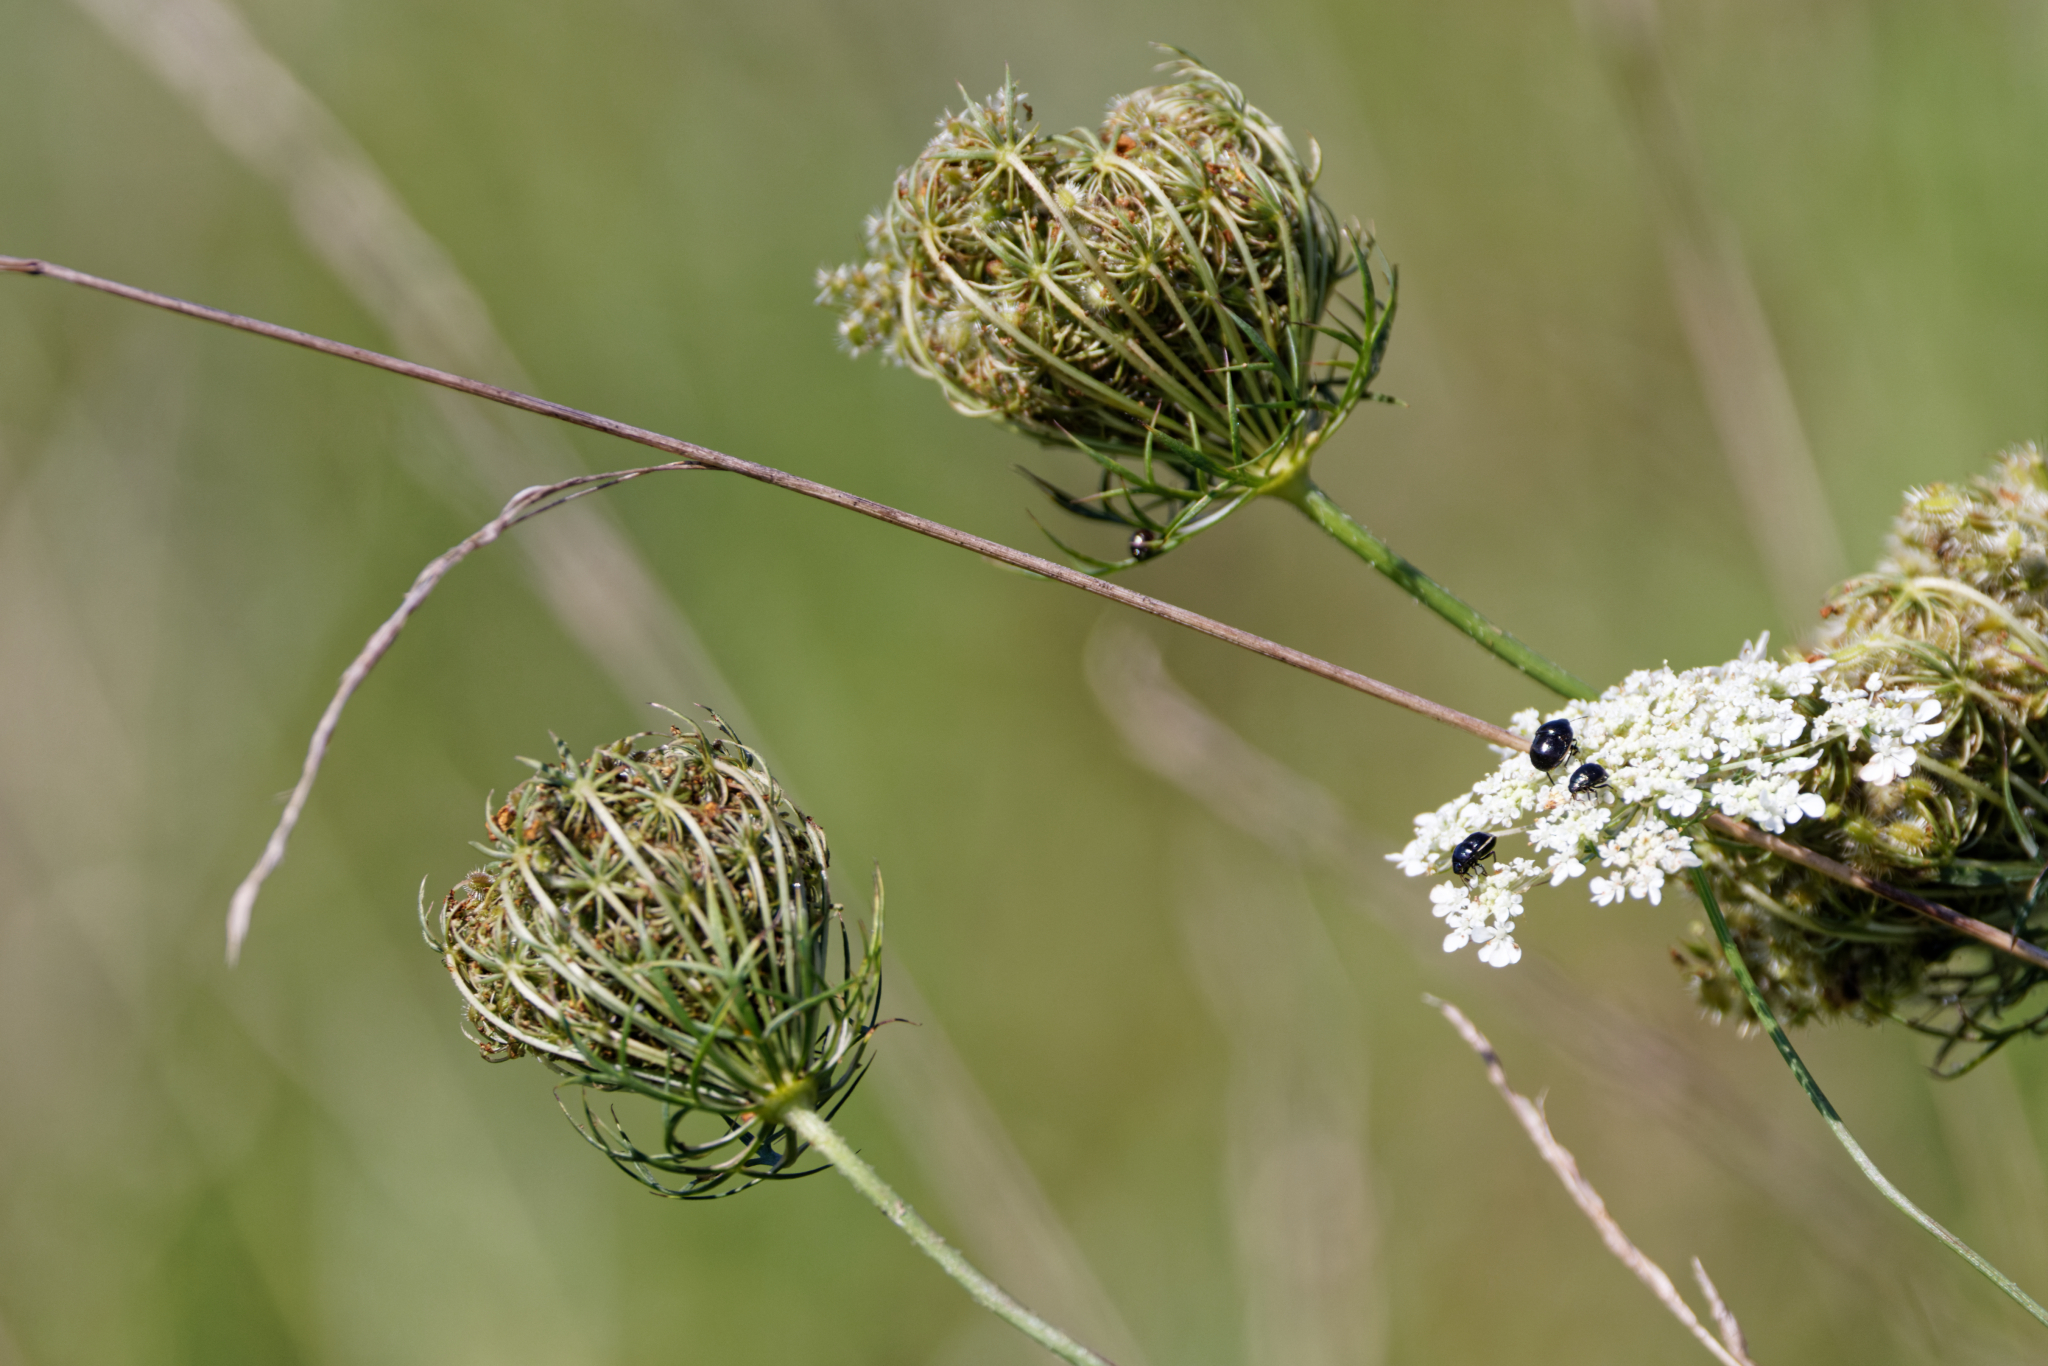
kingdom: Plantae
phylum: Tracheophyta
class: Magnoliopsida
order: Apiales
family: Apiaceae
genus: Daucus
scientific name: Daucus carota
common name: Wild carrot
